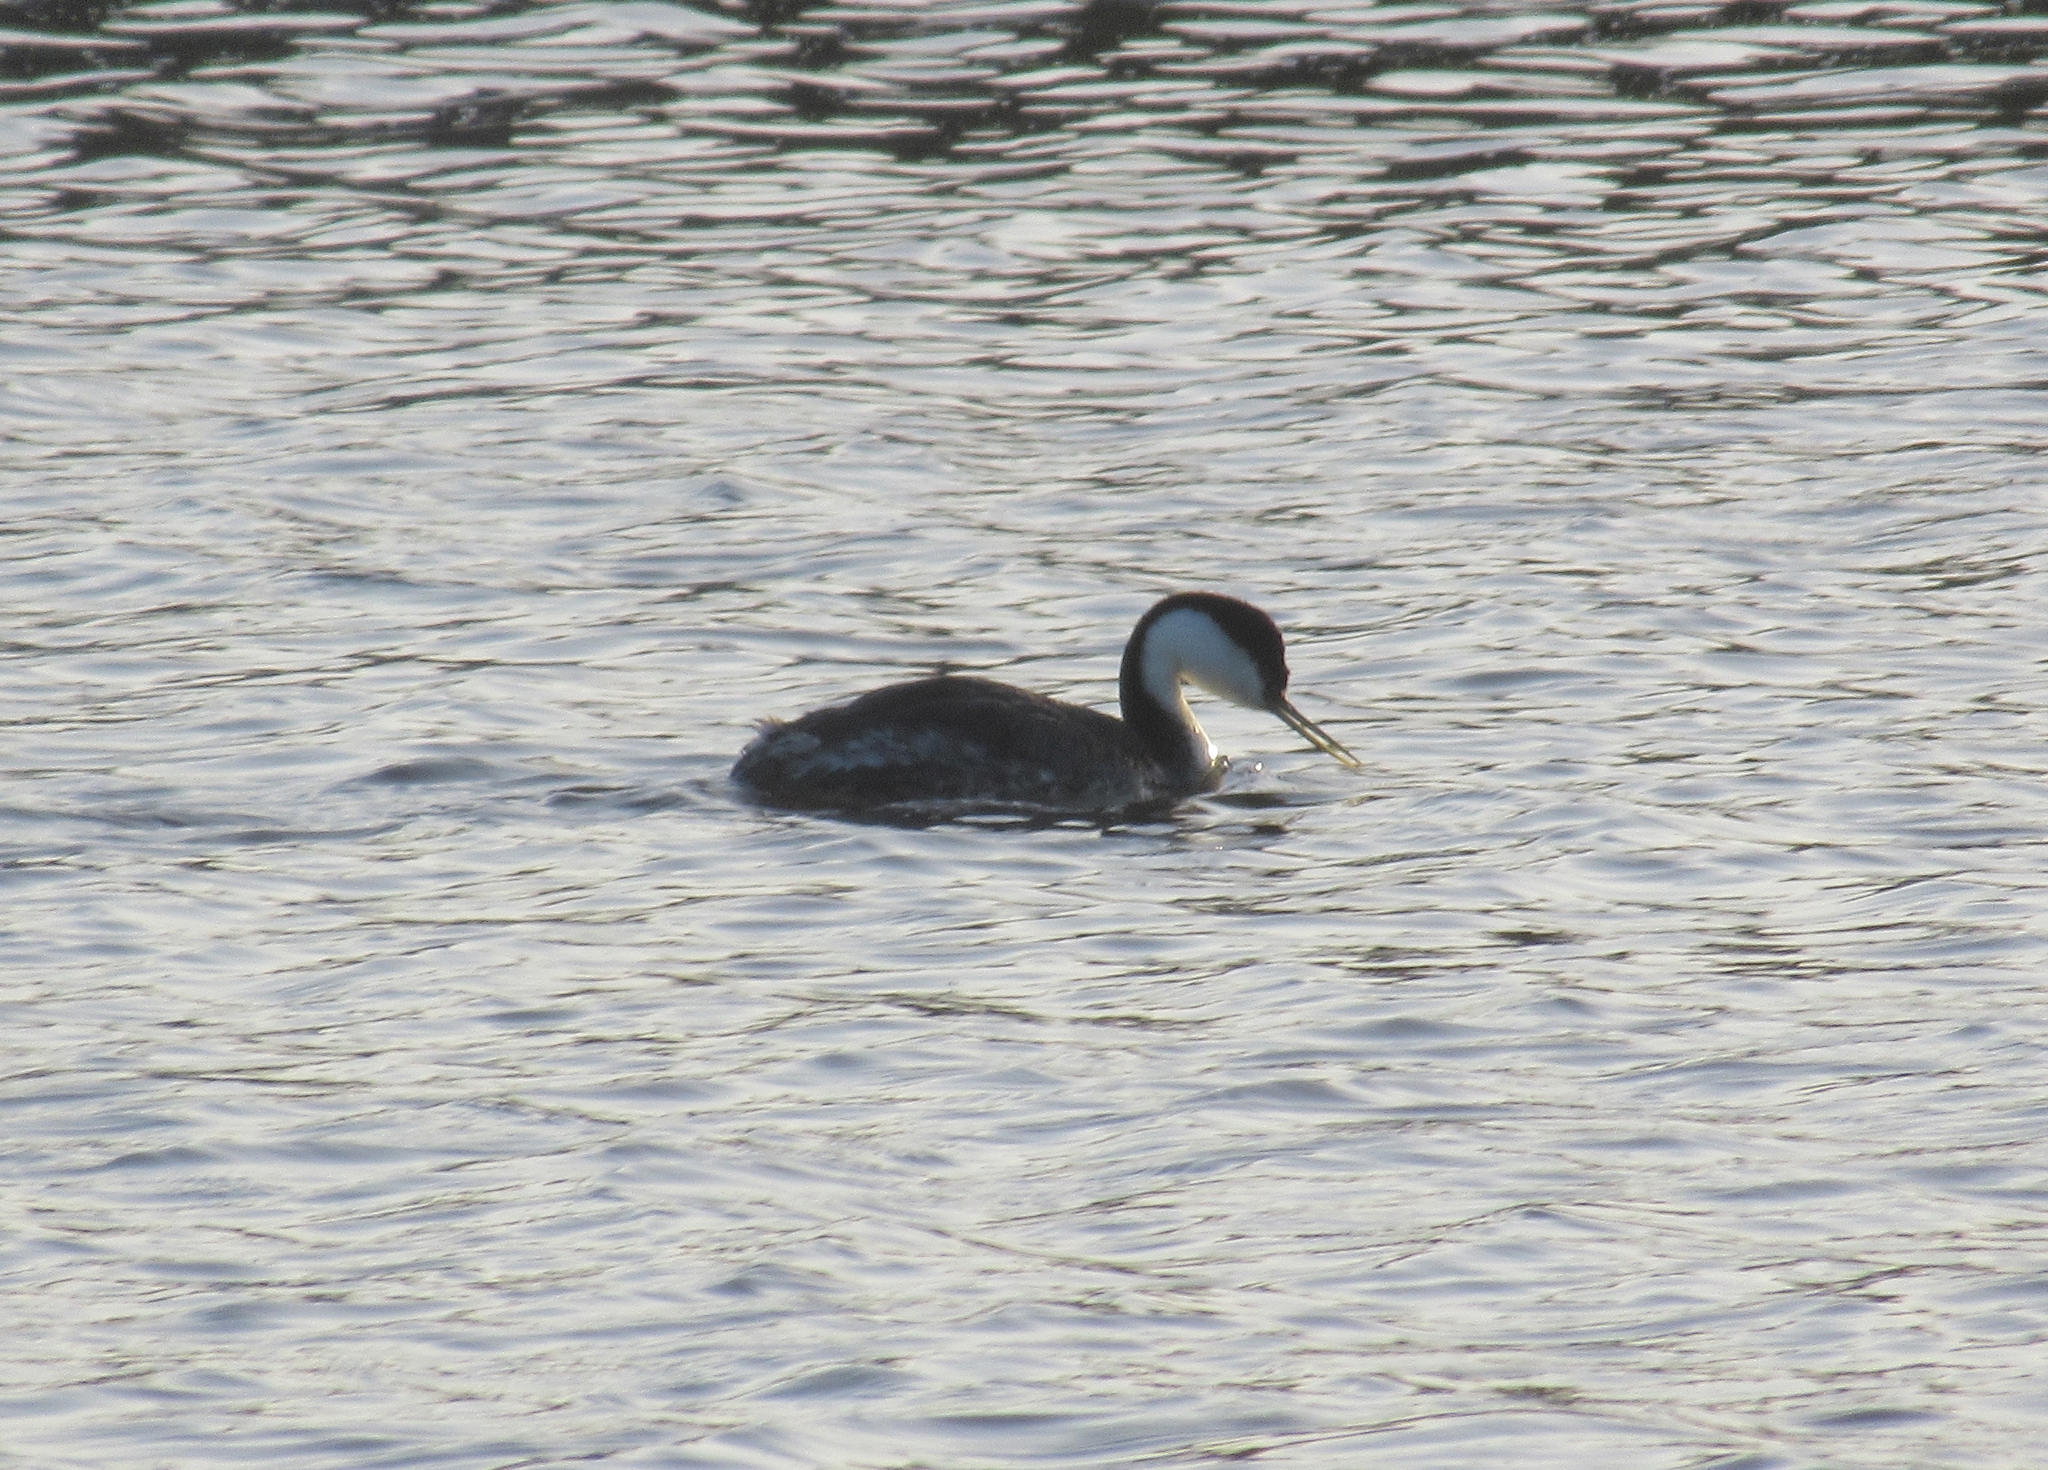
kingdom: Animalia
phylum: Chordata
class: Aves
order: Podicipediformes
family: Podicipedidae
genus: Aechmophorus
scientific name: Aechmophorus occidentalis
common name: Western grebe
